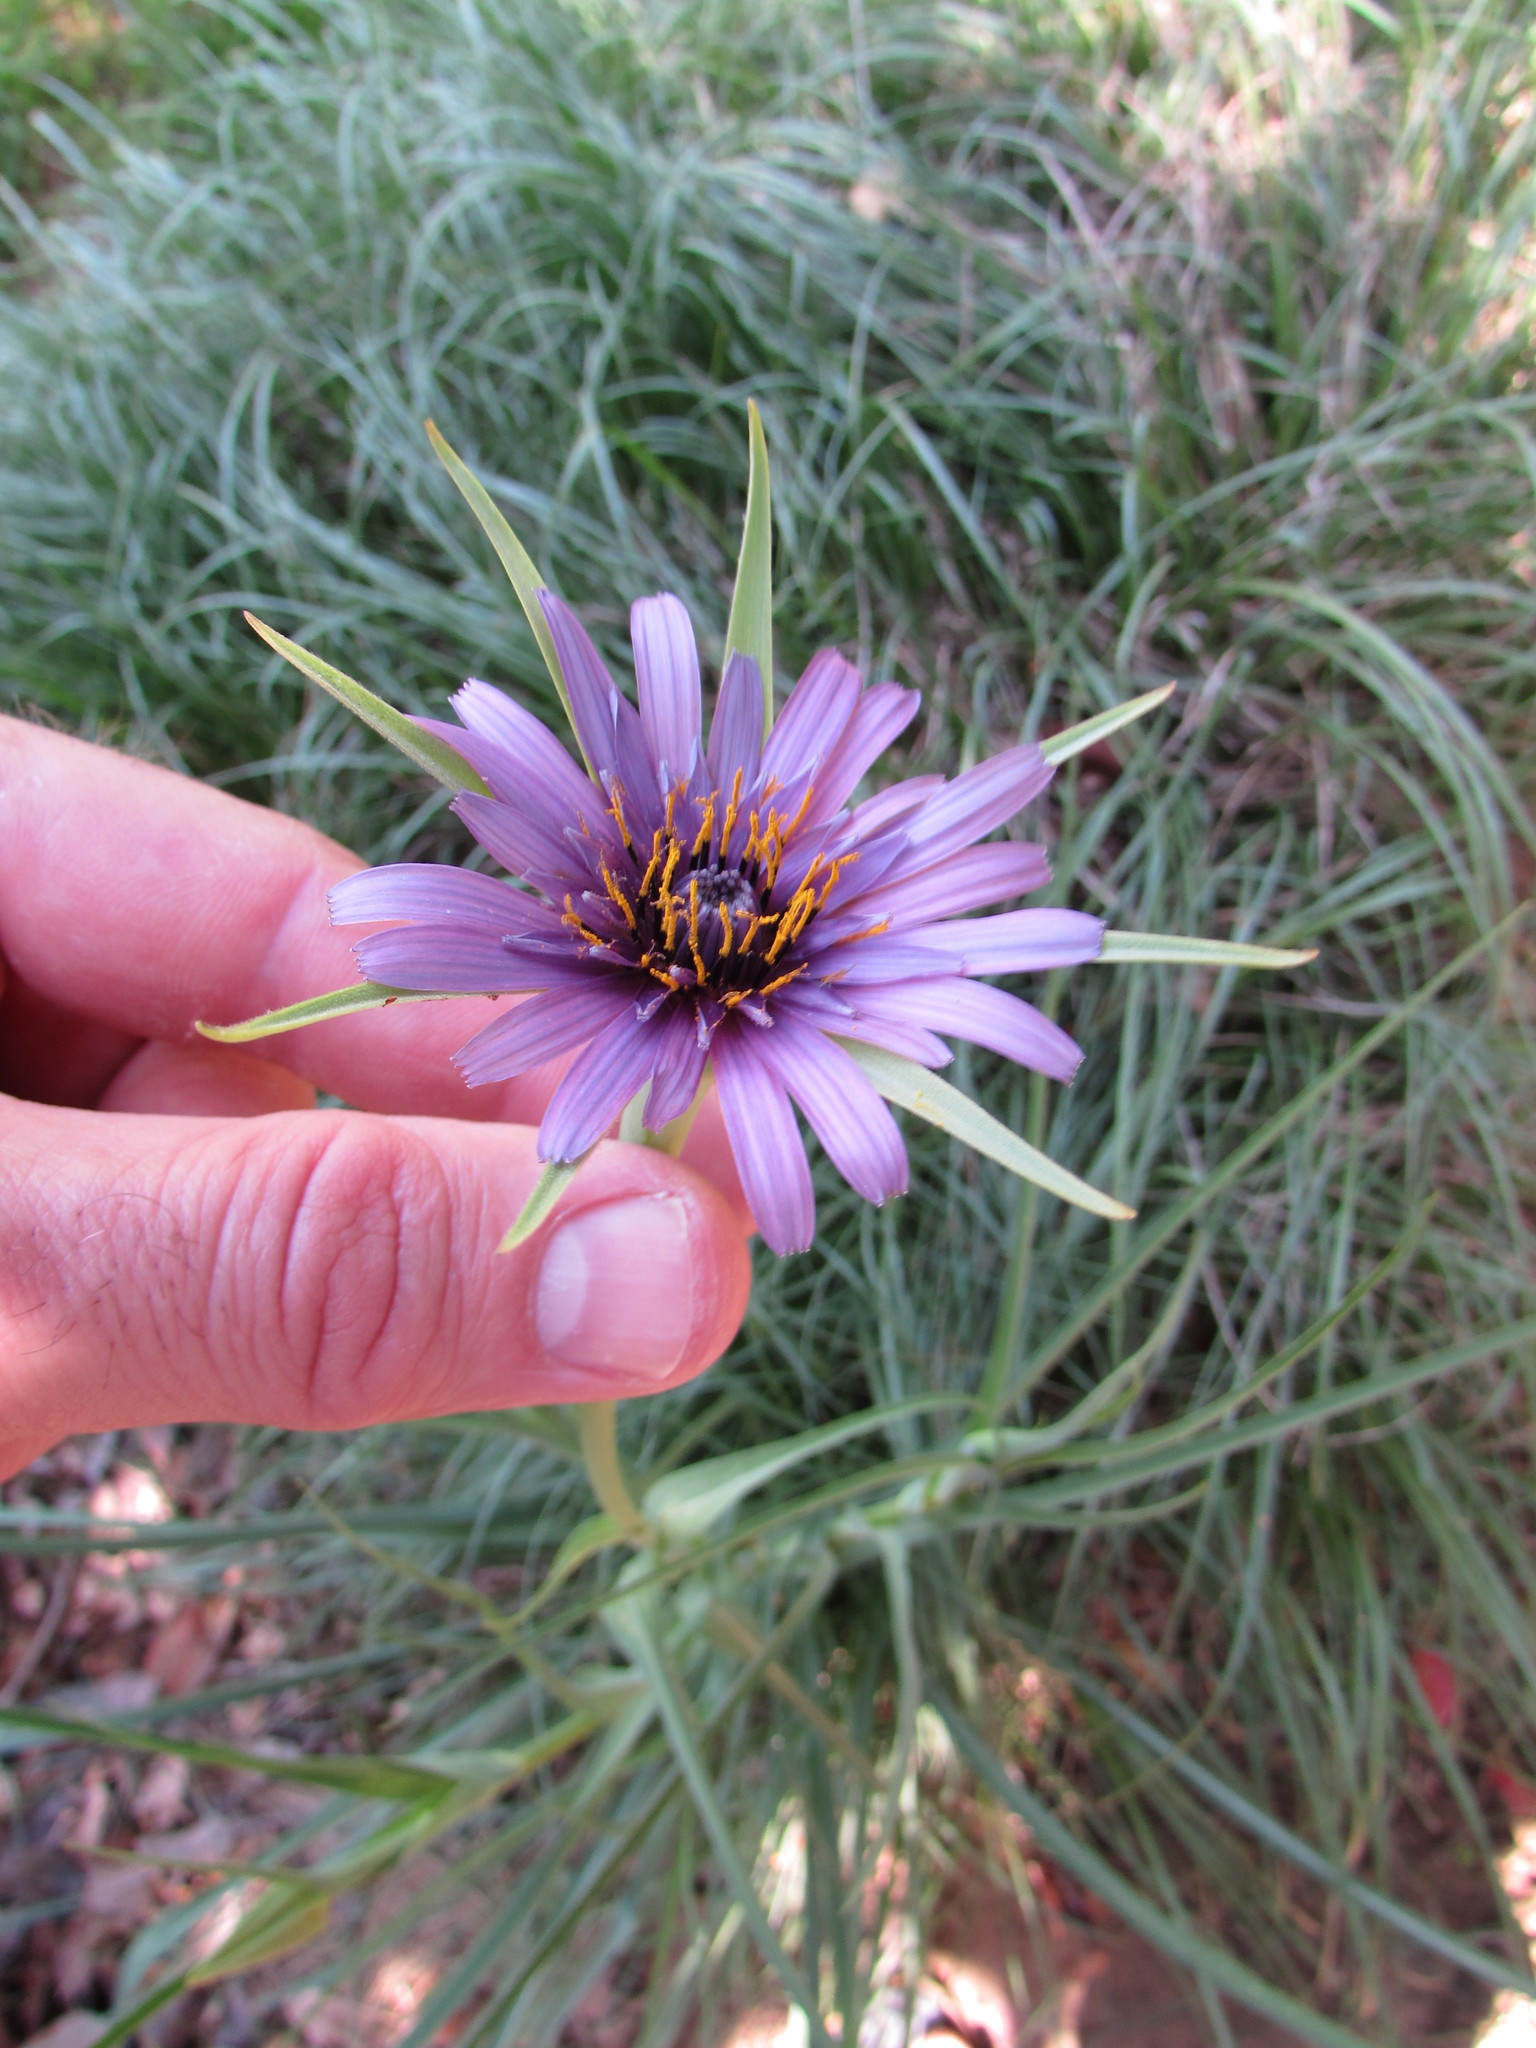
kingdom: Plantae
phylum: Tracheophyta
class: Magnoliopsida
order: Asterales
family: Asteraceae
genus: Tragopogon
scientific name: Tragopogon porrifolius
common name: Salsify
